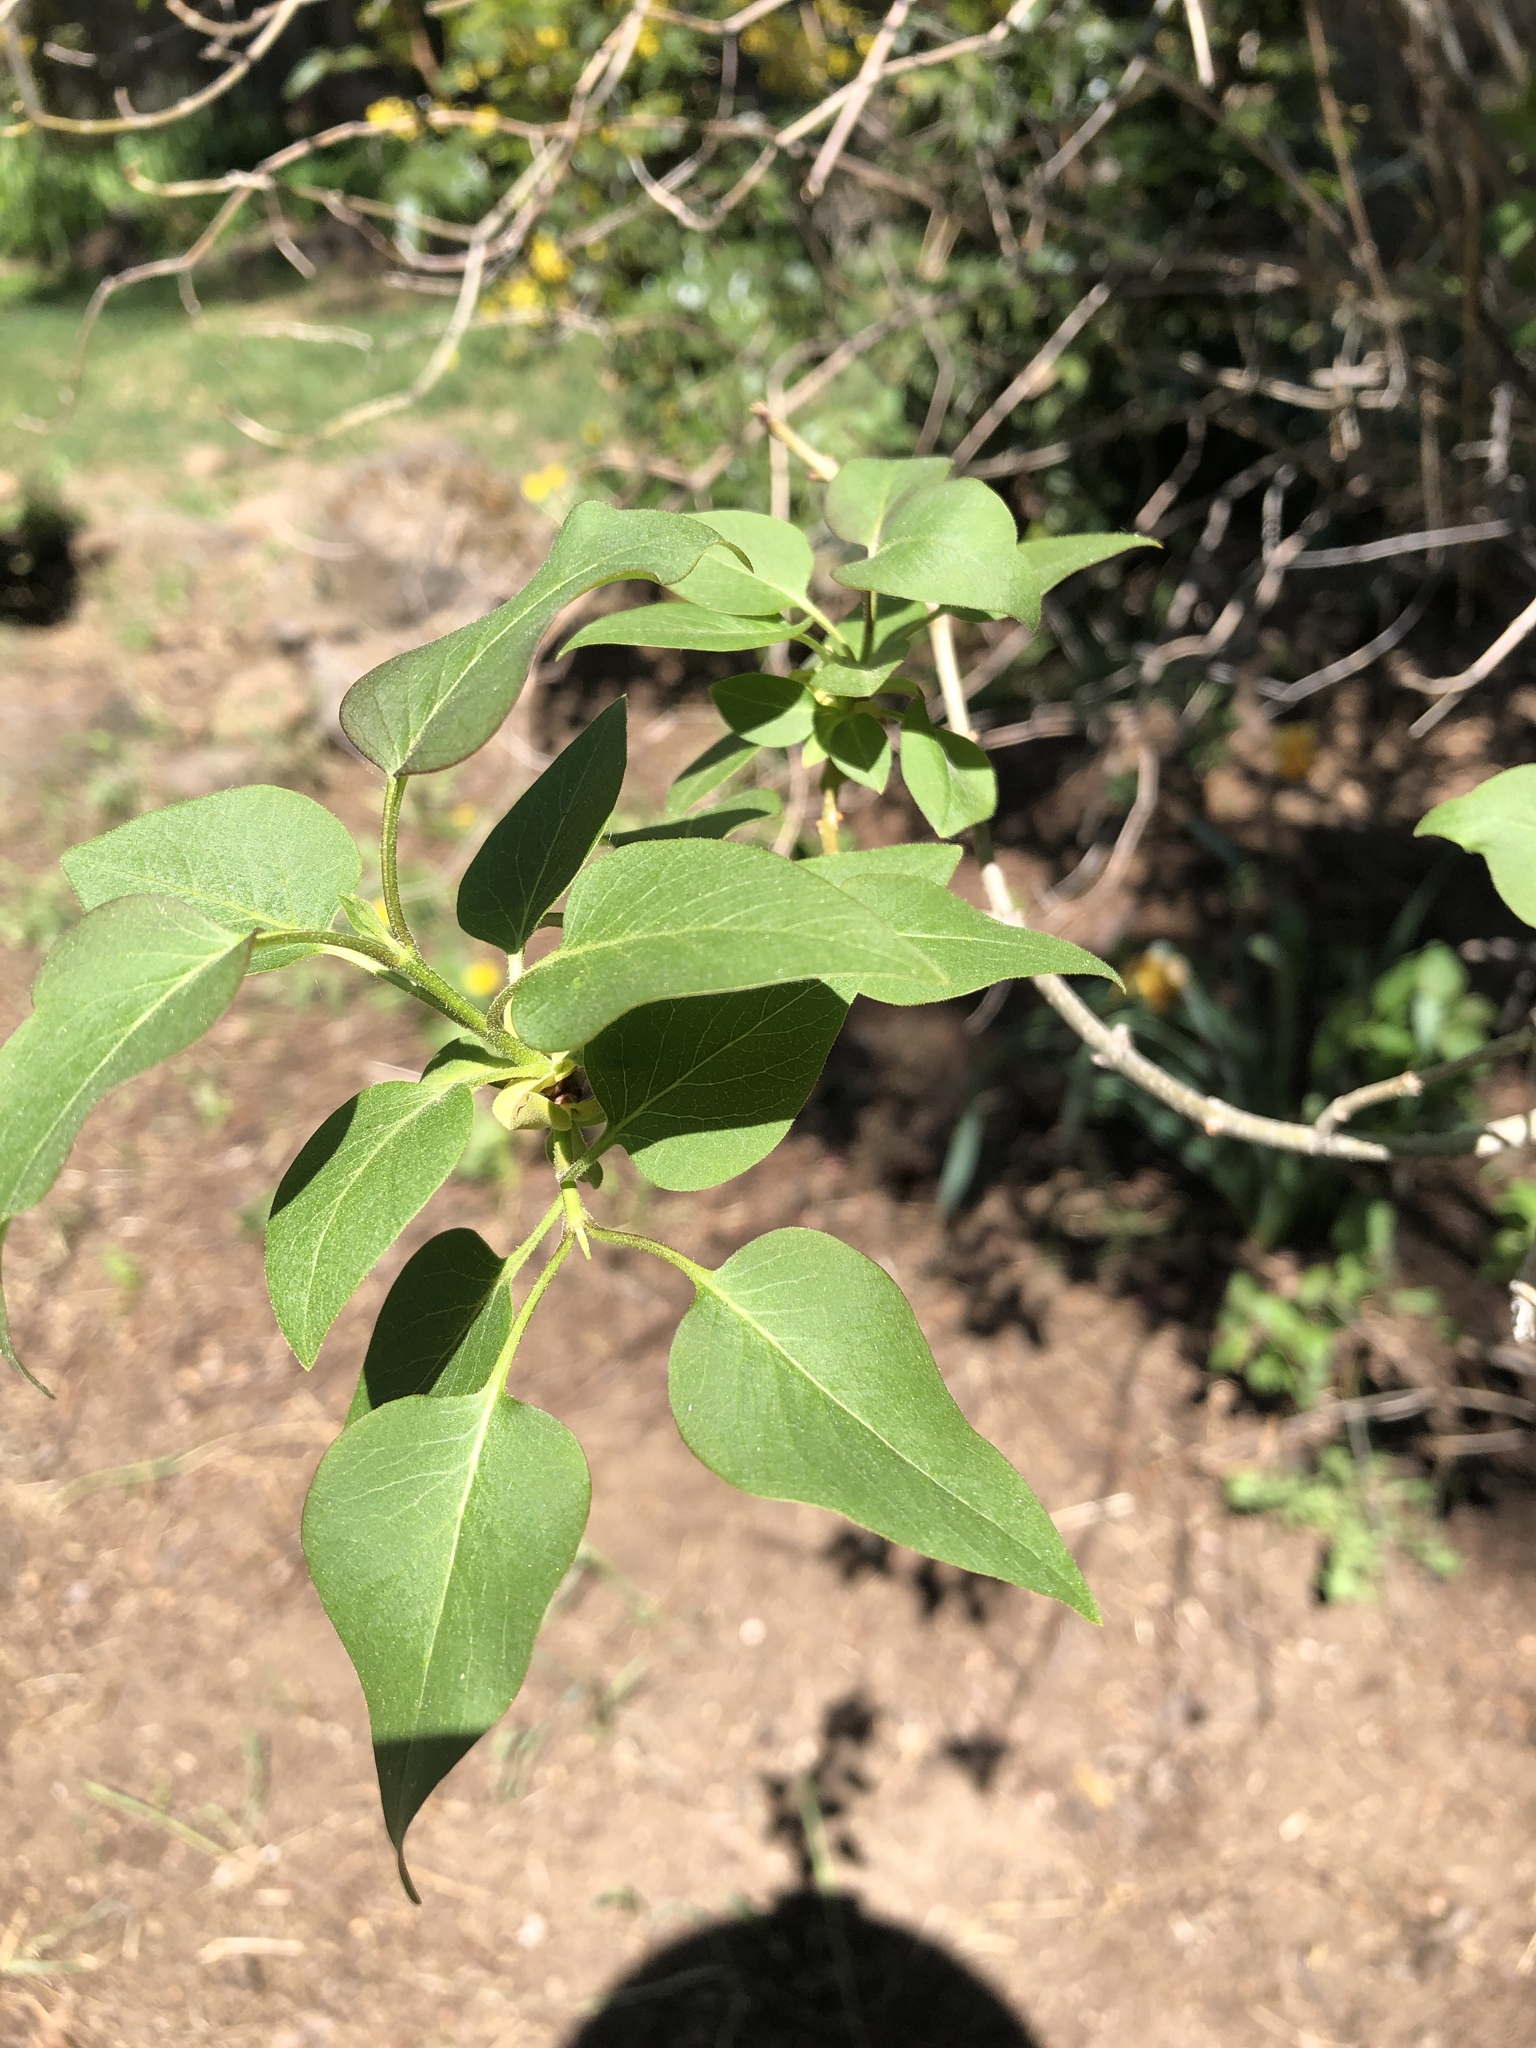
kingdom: Plantae
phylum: Tracheophyta
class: Magnoliopsida
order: Lamiales
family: Oleaceae
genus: Syringa
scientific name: Syringa vulgaris
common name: Common lilac
